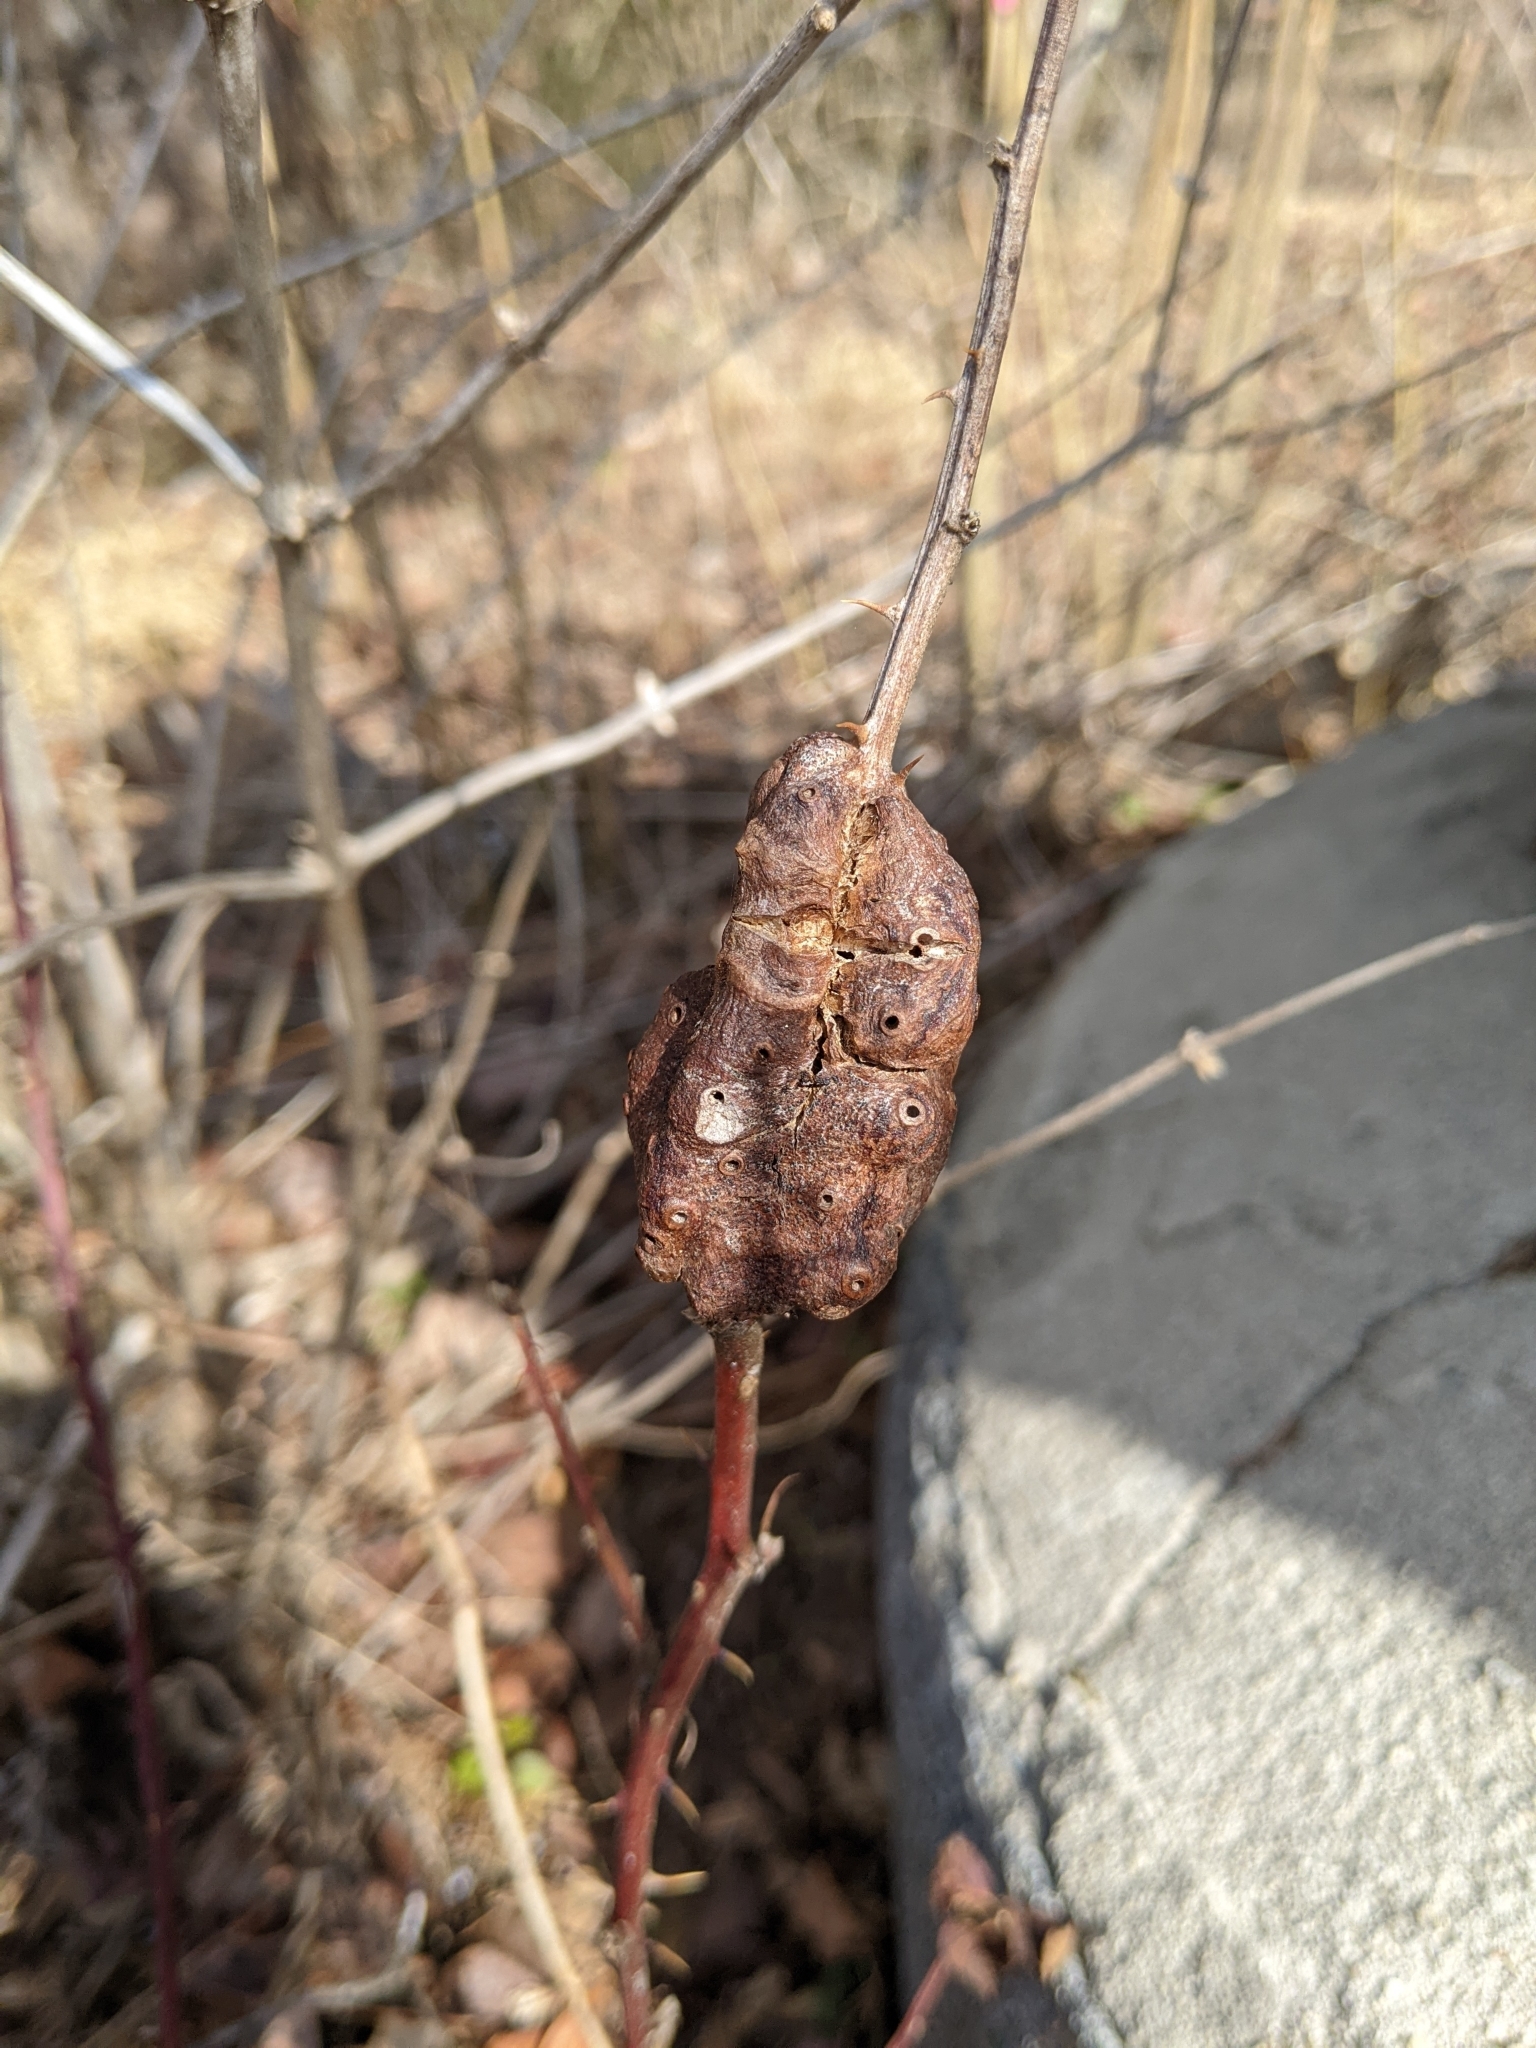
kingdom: Animalia
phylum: Arthropoda
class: Insecta
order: Hymenoptera
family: Cynipidae
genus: Diastrophus
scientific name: Diastrophus
